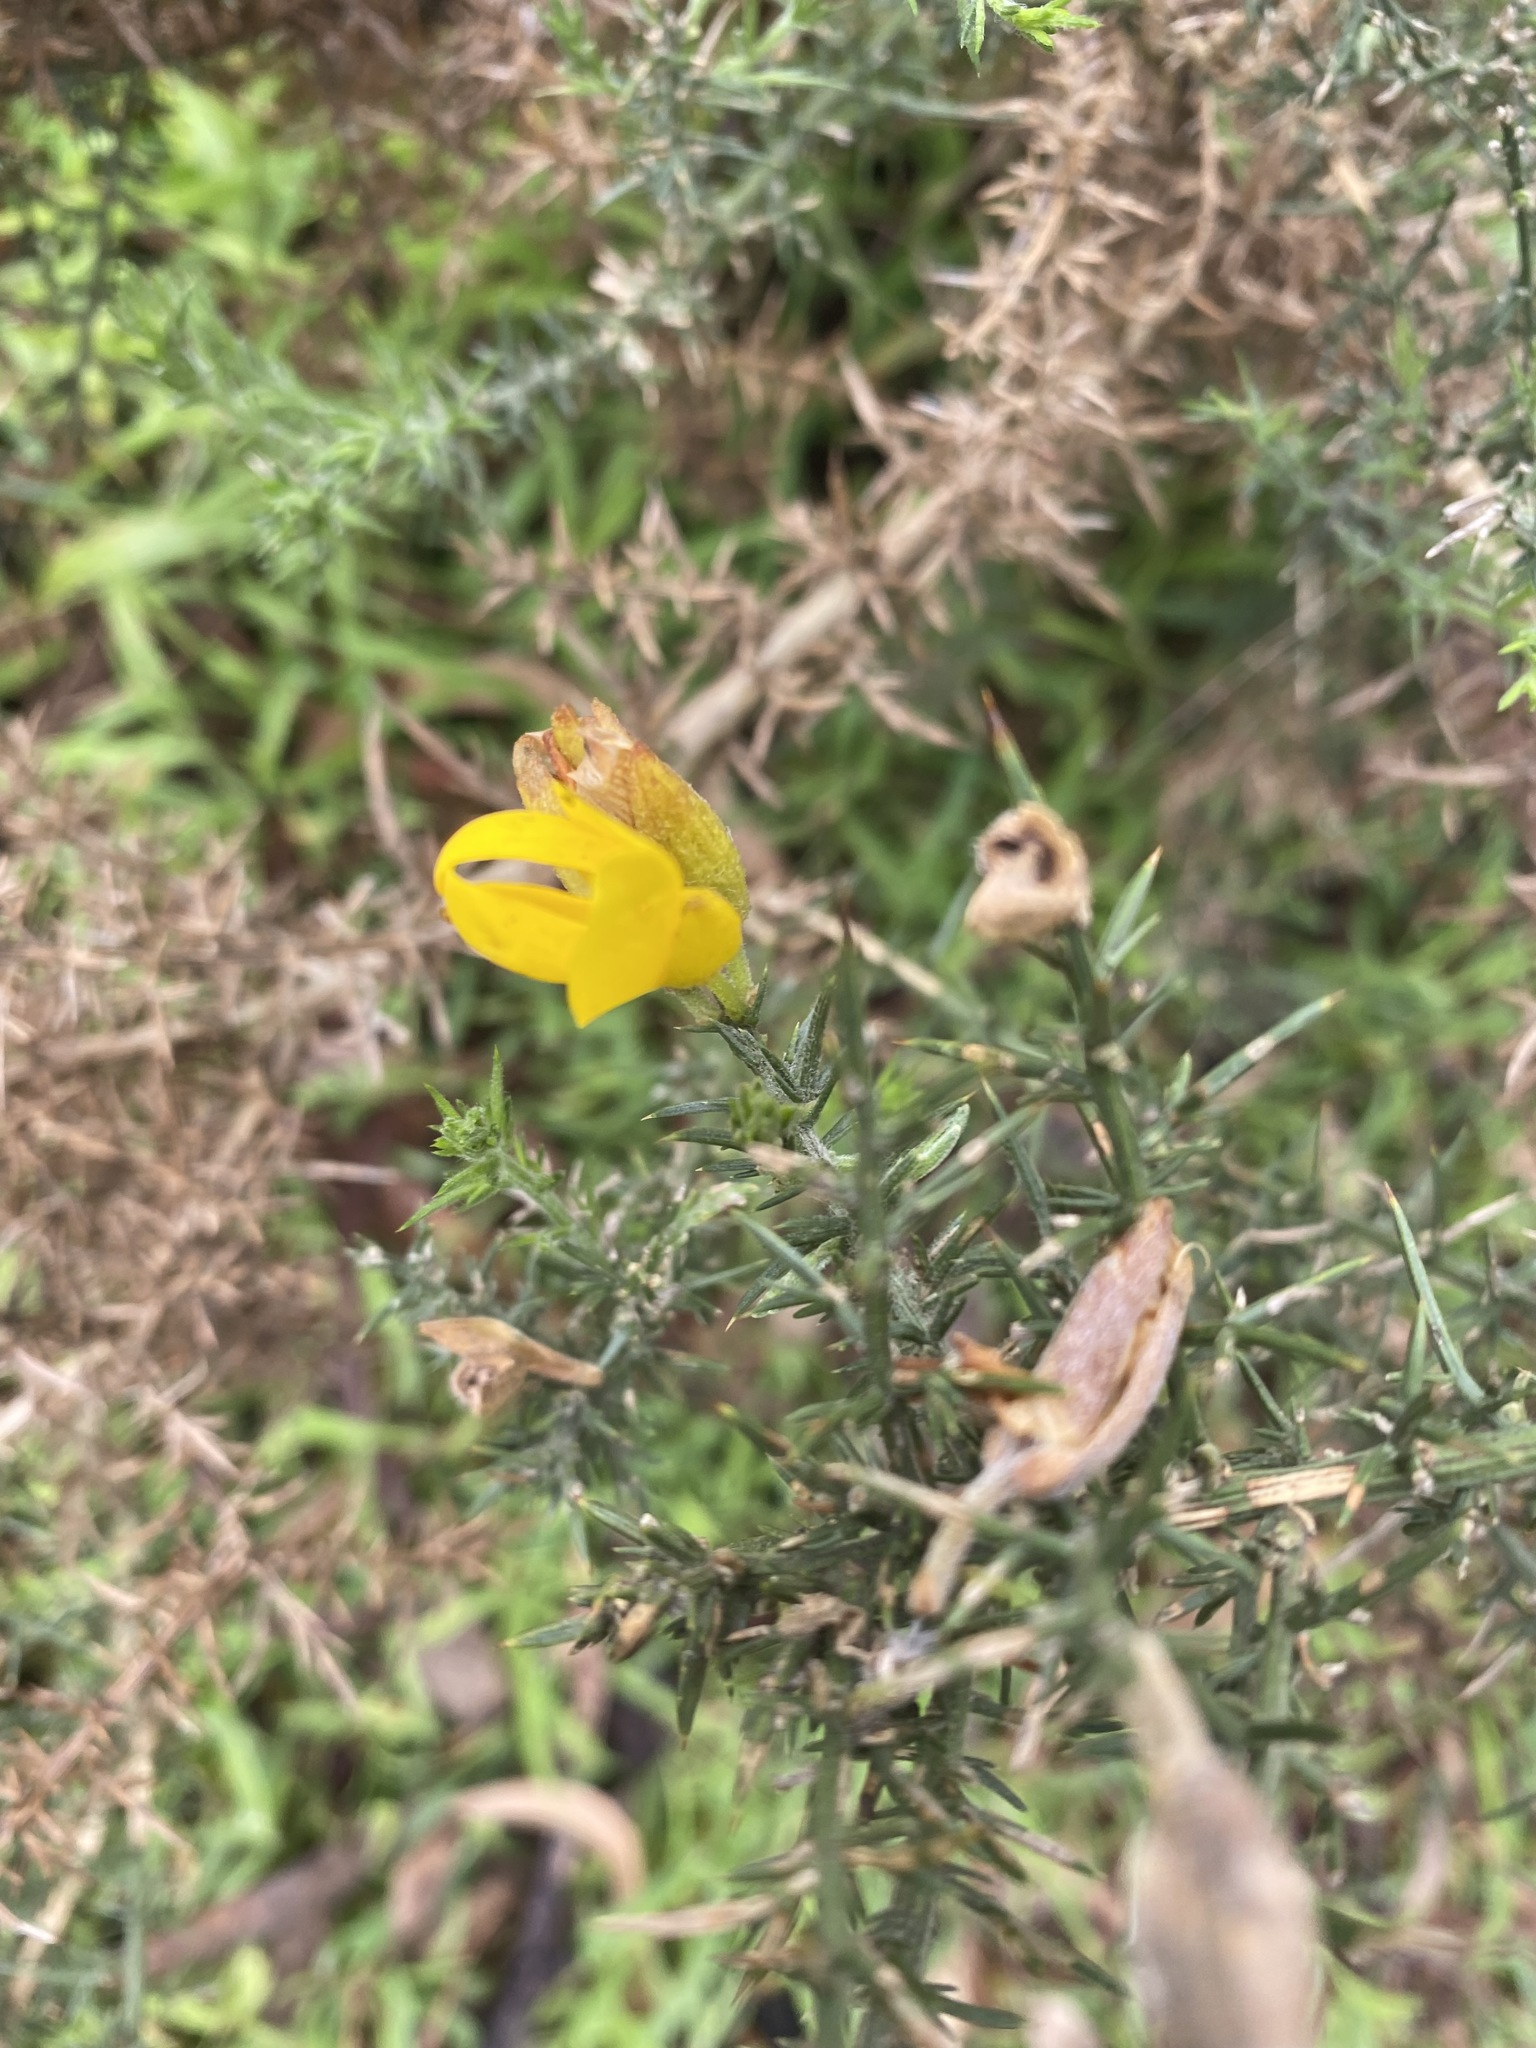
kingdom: Plantae
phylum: Tracheophyta
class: Magnoliopsida
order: Fabales
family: Fabaceae
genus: Ulex
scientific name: Ulex europaeus
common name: Common gorse
